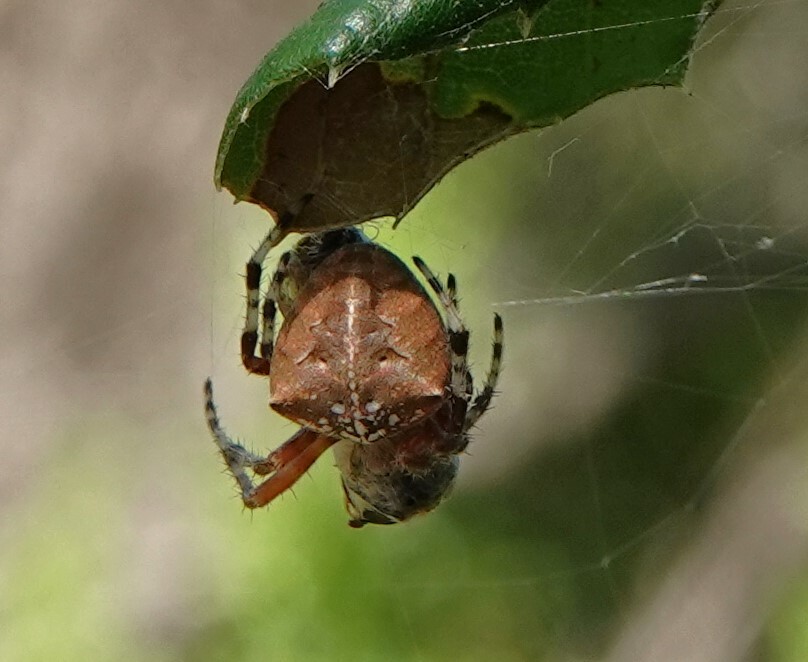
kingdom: Animalia
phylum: Arthropoda
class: Arachnida
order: Araneae
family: Araneidae
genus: Araneus
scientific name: Araneus gemma
